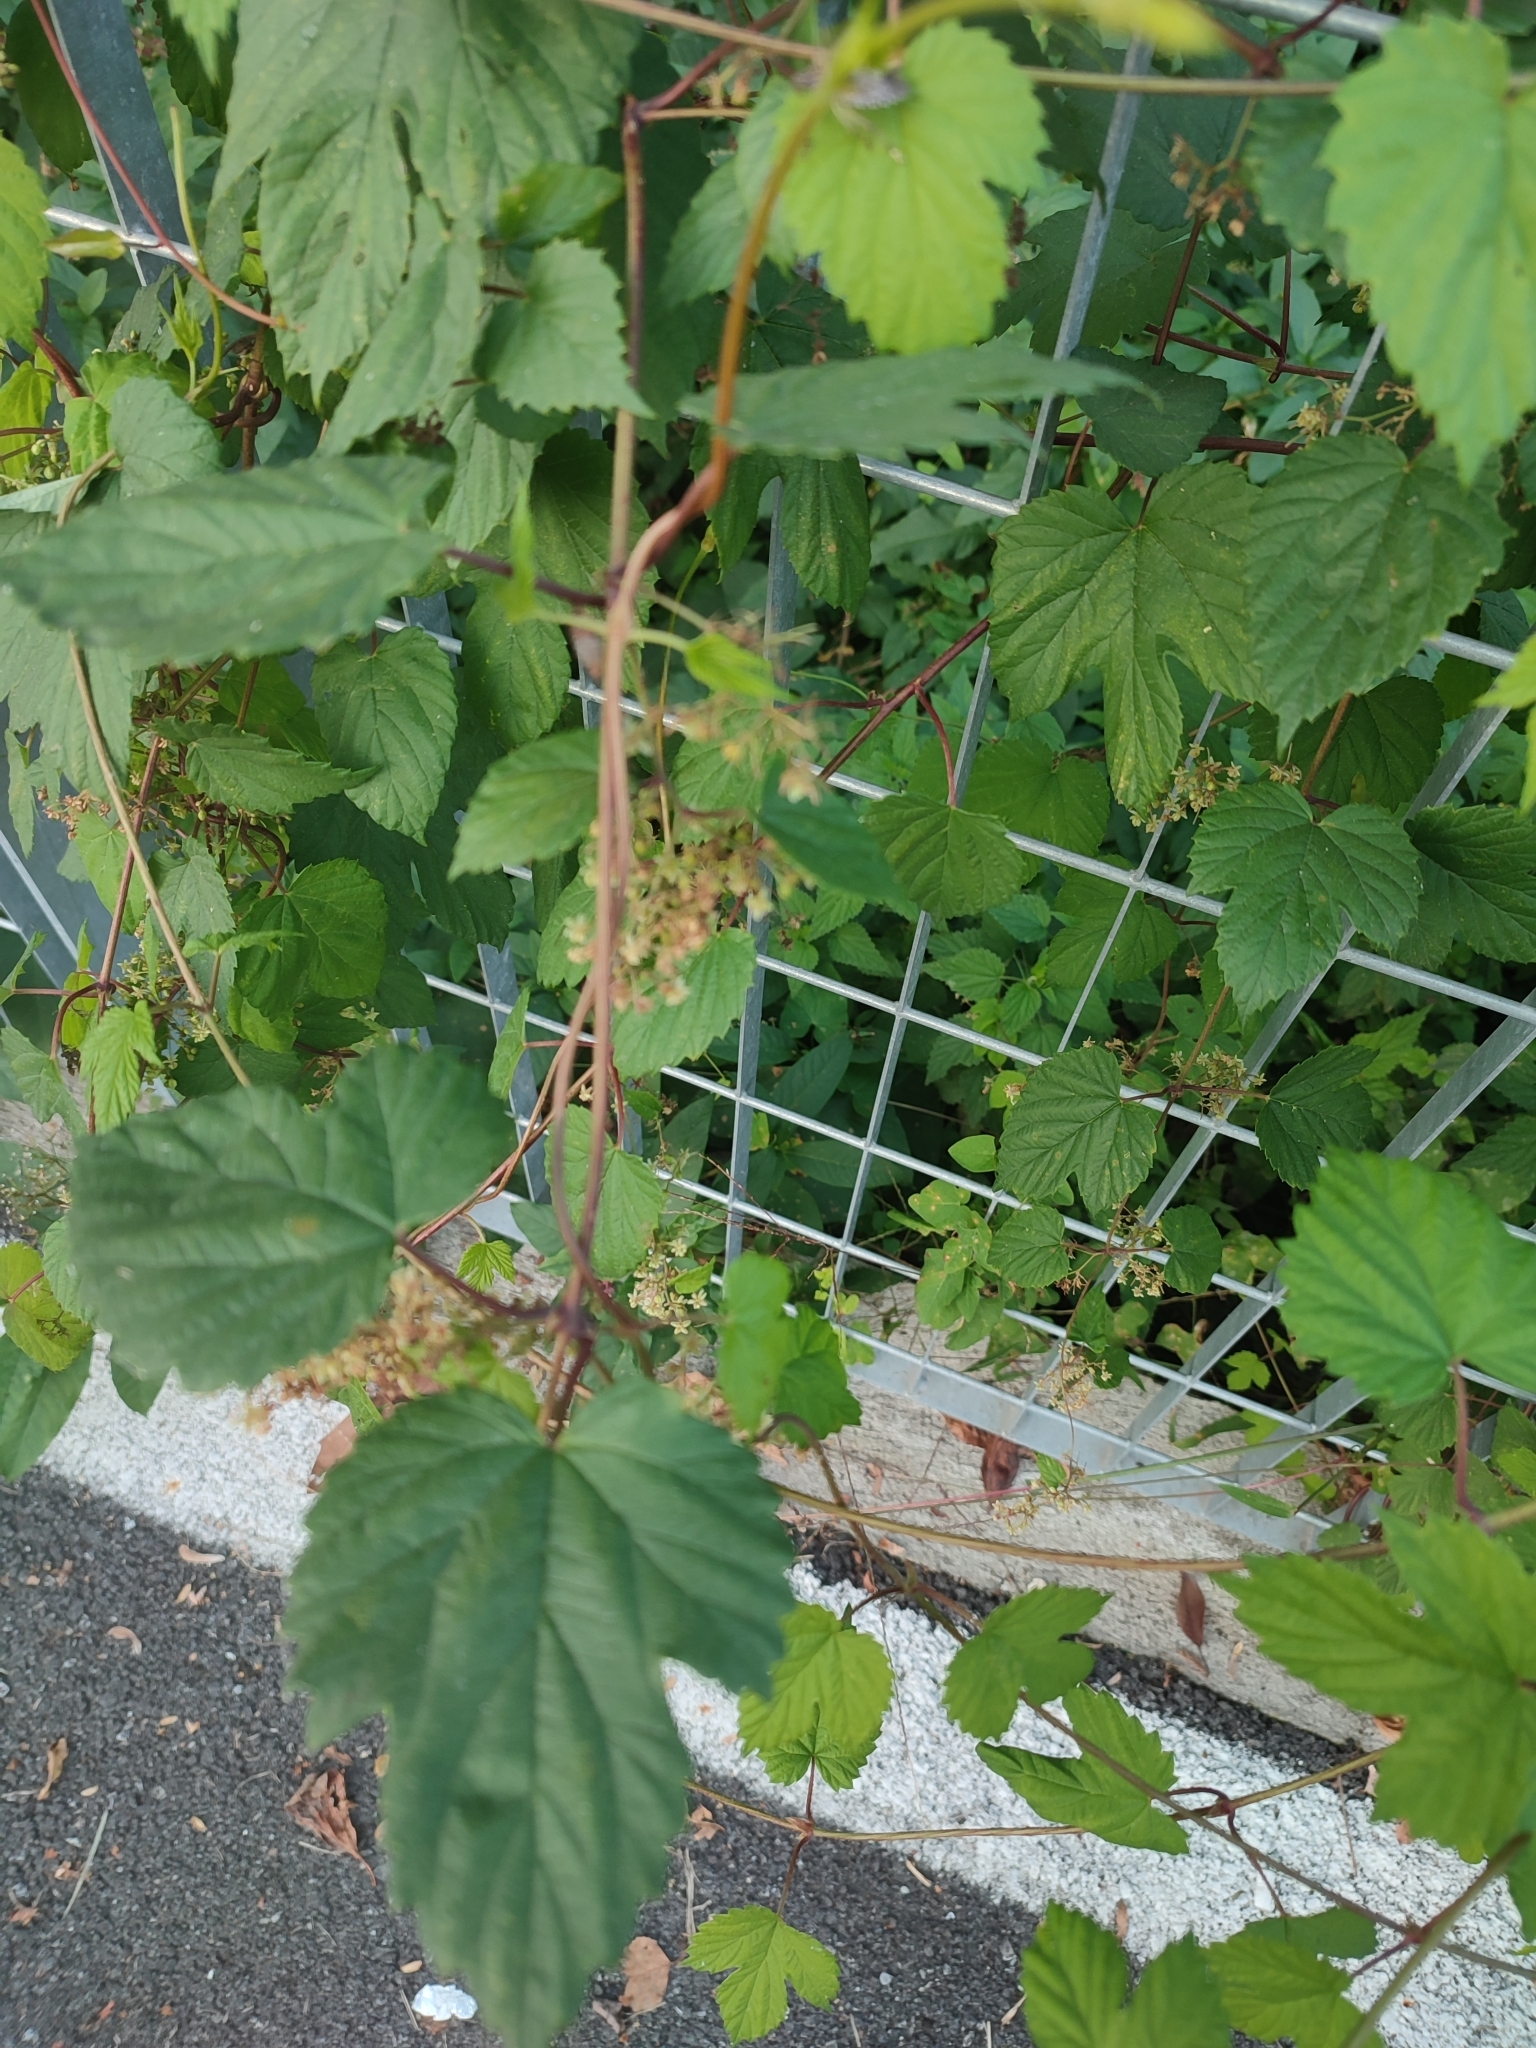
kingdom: Plantae
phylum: Tracheophyta
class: Magnoliopsida
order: Rosales
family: Cannabaceae
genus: Humulus
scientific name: Humulus lupulus
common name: Hop
